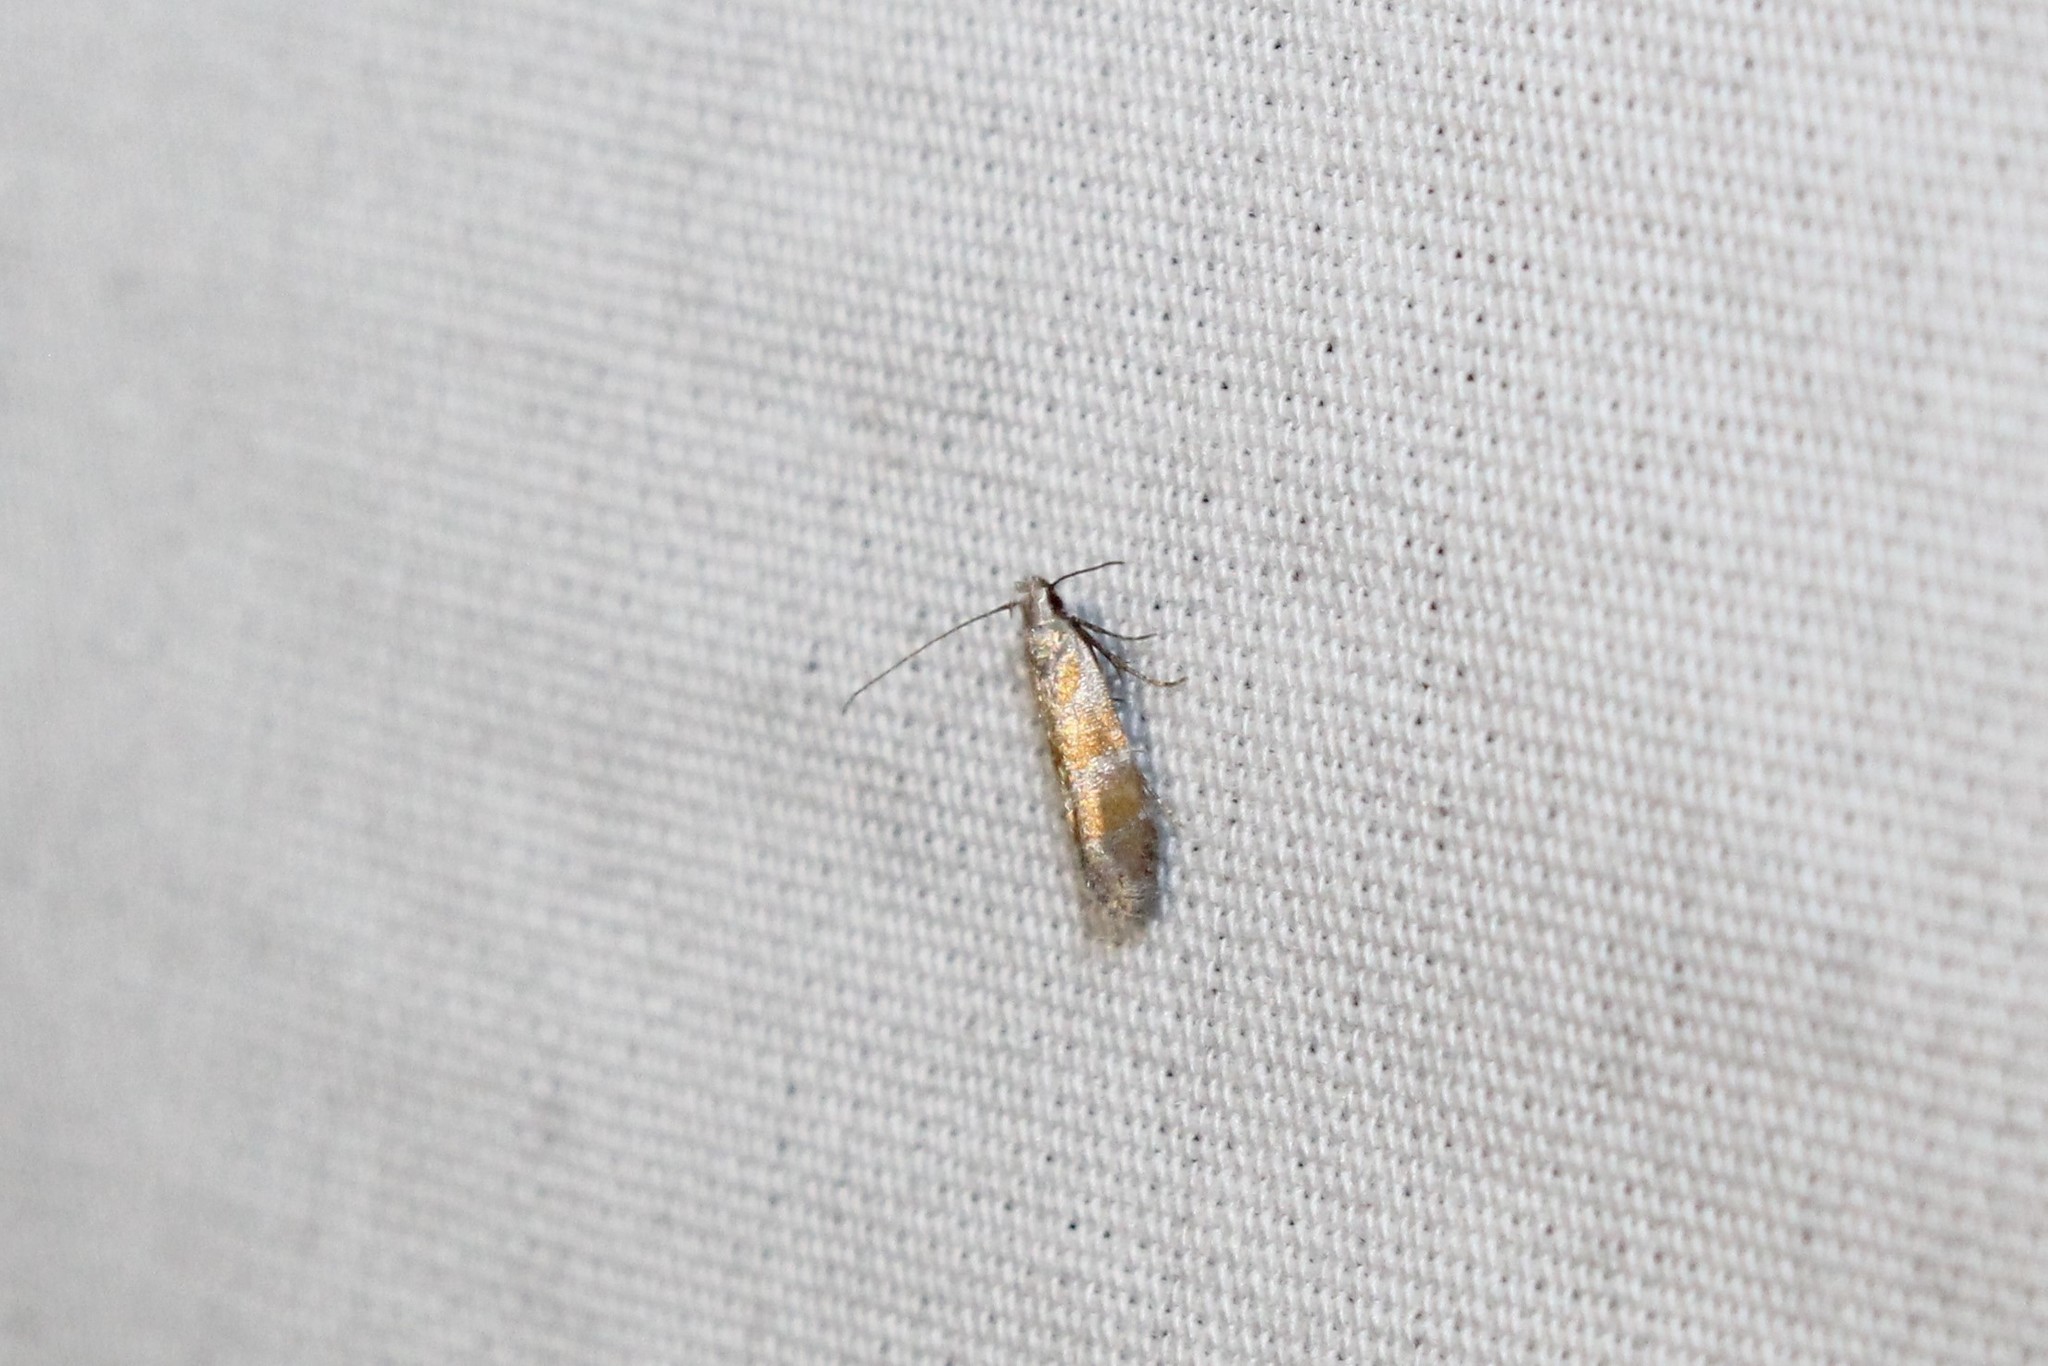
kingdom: Animalia
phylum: Arthropoda
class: Insecta
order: Lepidoptera
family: Gelechiidae
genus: Battaristis
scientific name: Battaristis vittella
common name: Orange stripe-backed moth
